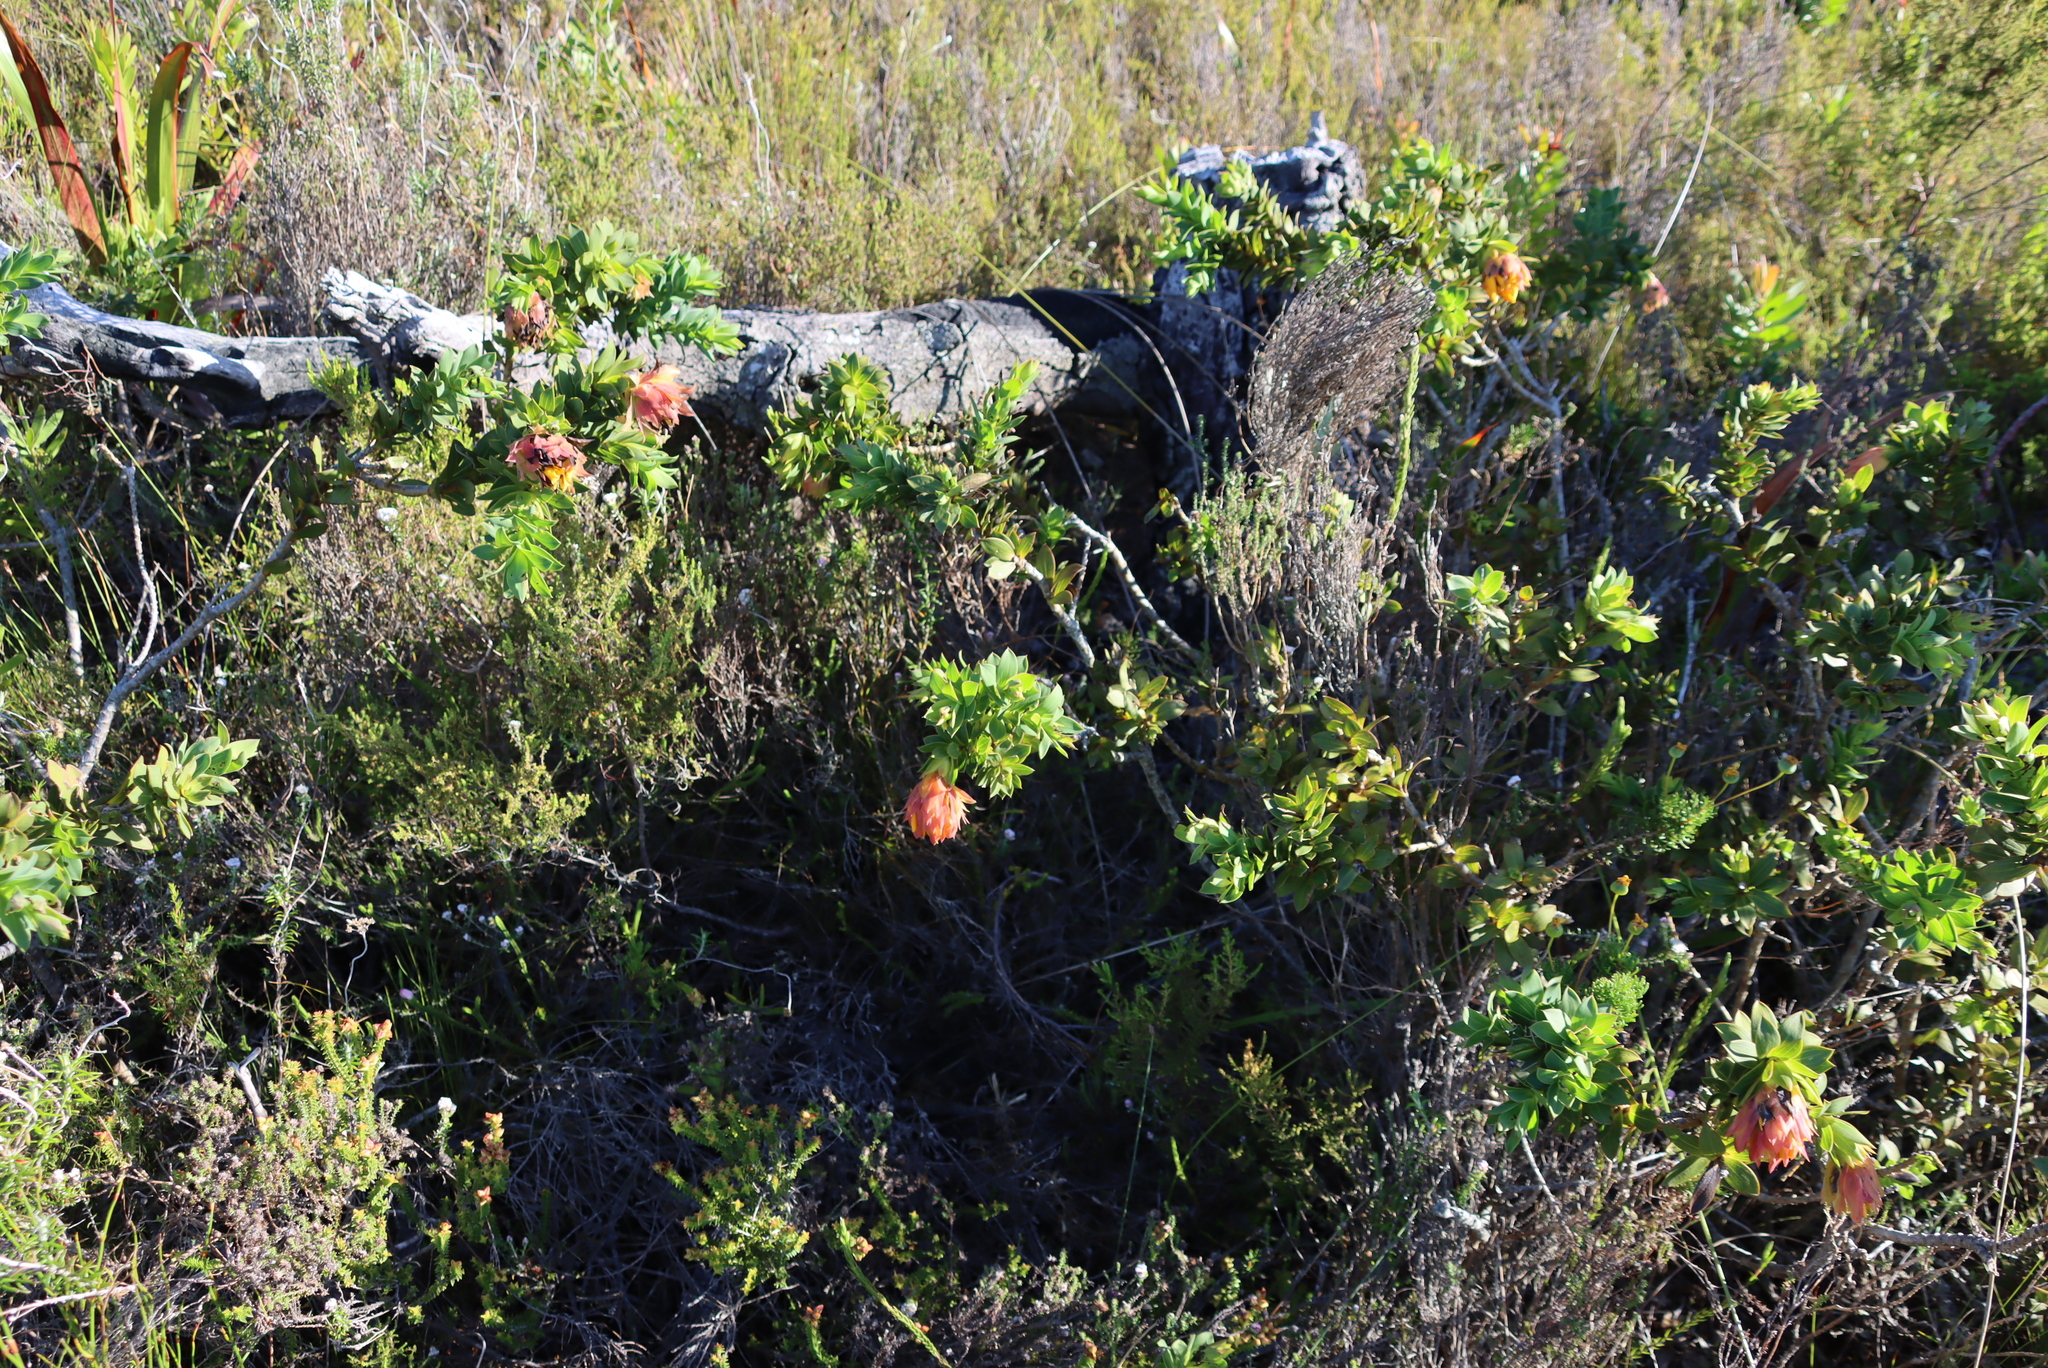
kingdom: Plantae
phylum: Tracheophyta
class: Magnoliopsida
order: Fabales
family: Fabaceae
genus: Liparia
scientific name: Liparia splendens
